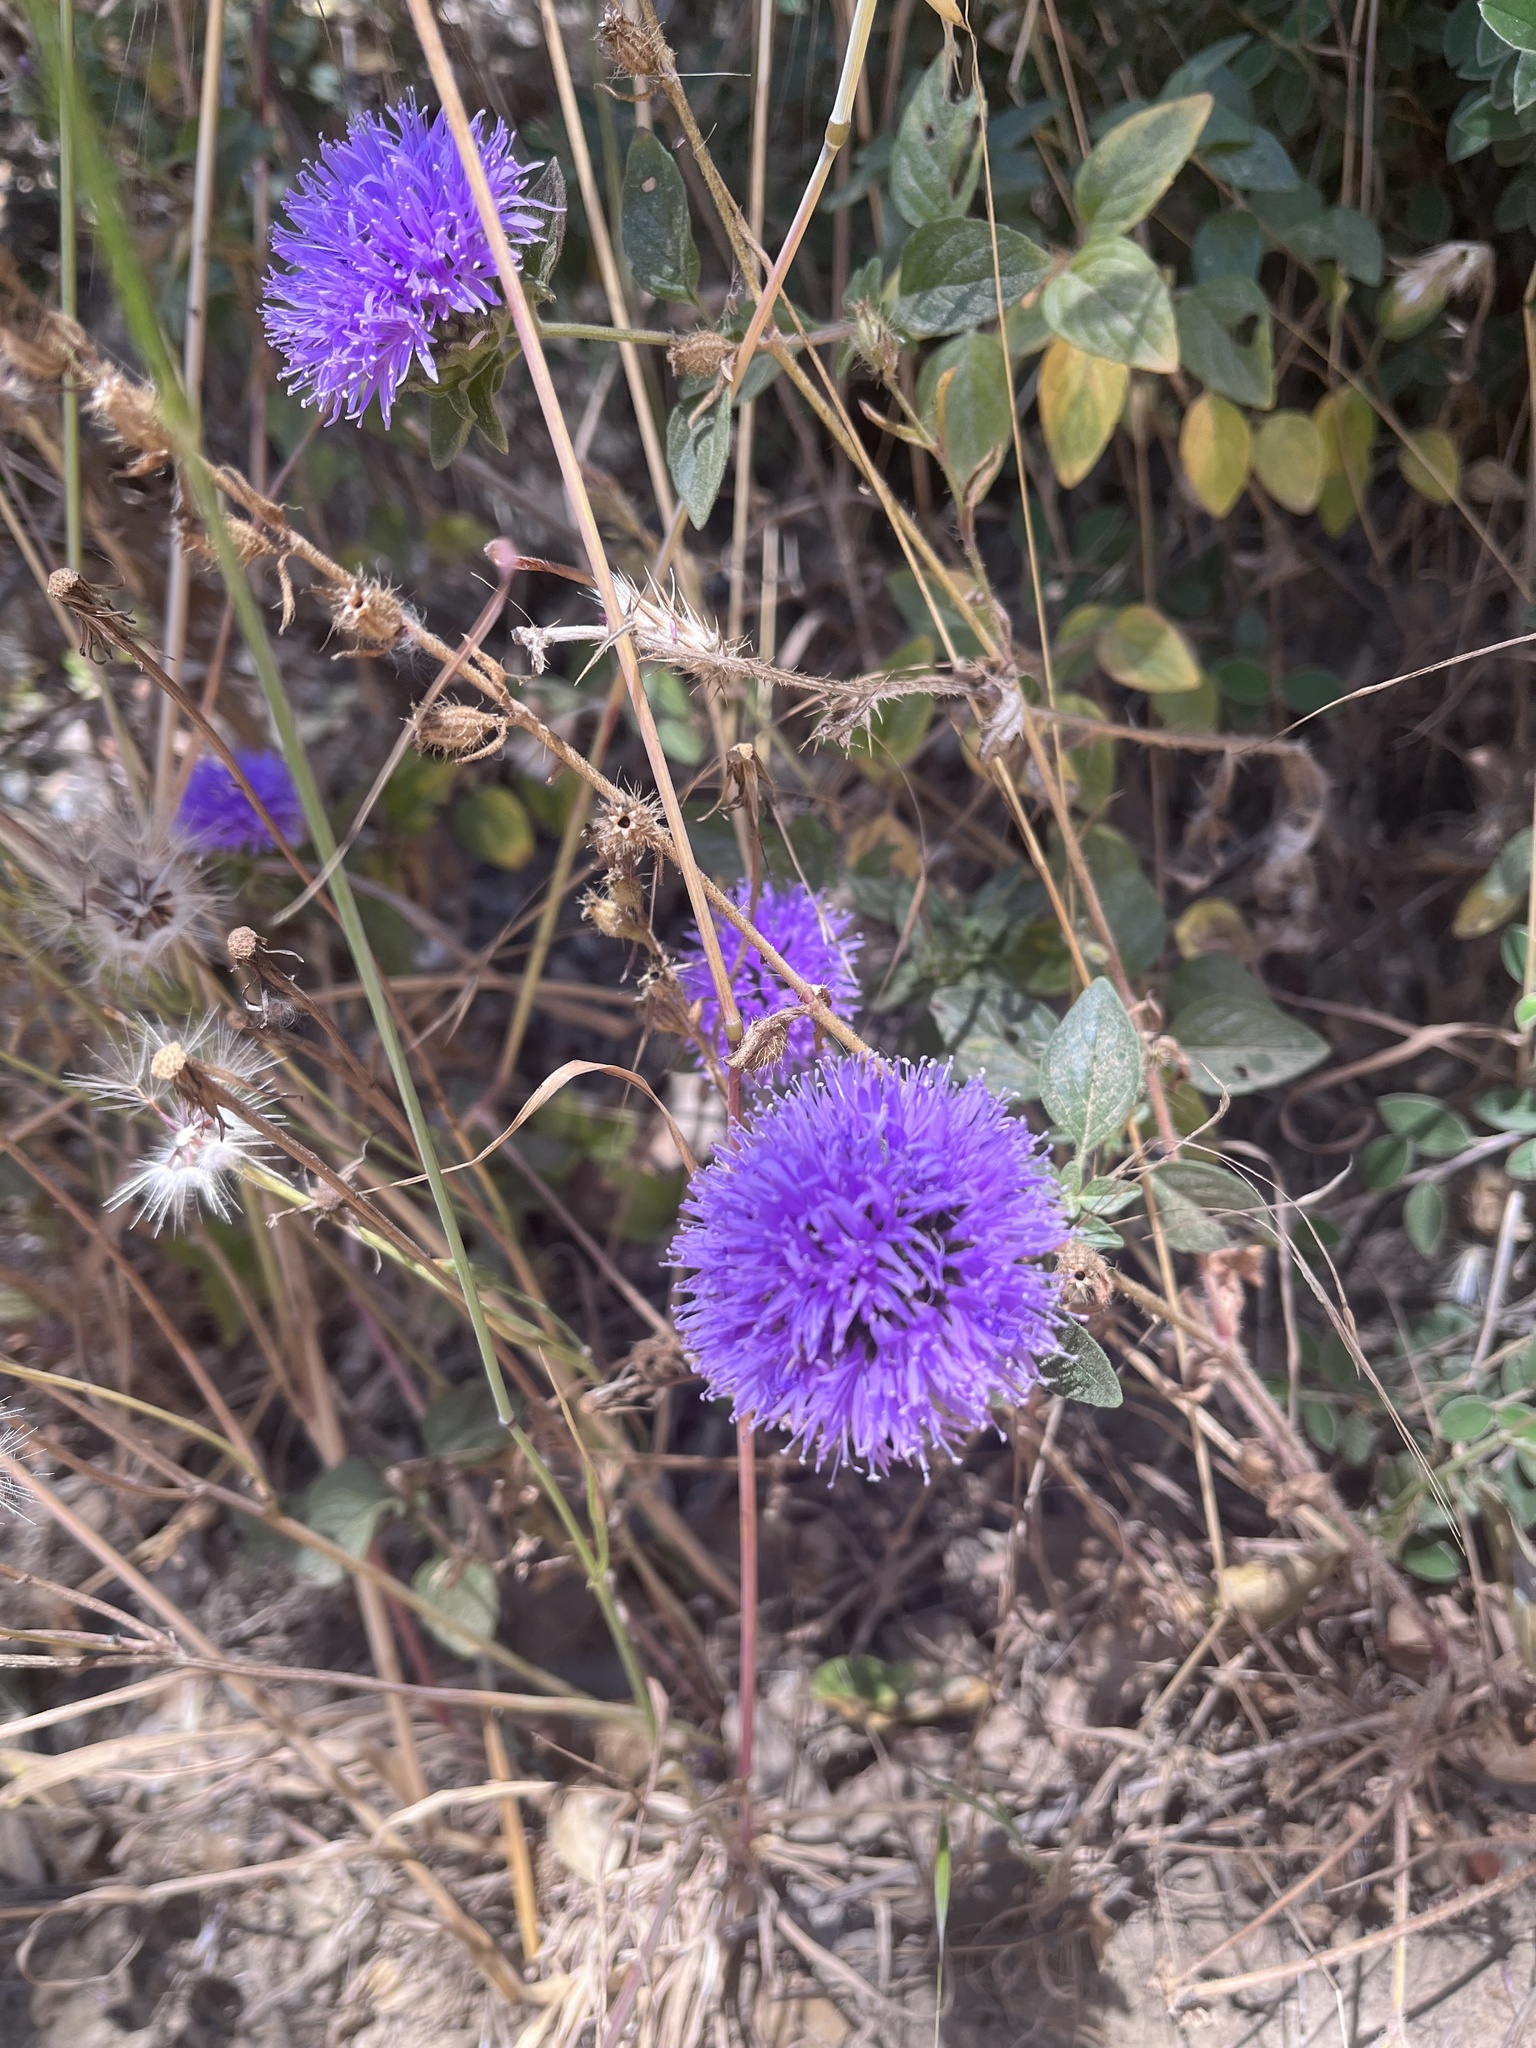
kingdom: Plantae
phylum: Tracheophyta
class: Magnoliopsida
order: Lamiales
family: Lamiaceae
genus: Monardella
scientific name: Monardella odoratissima
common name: Pacific monardella
